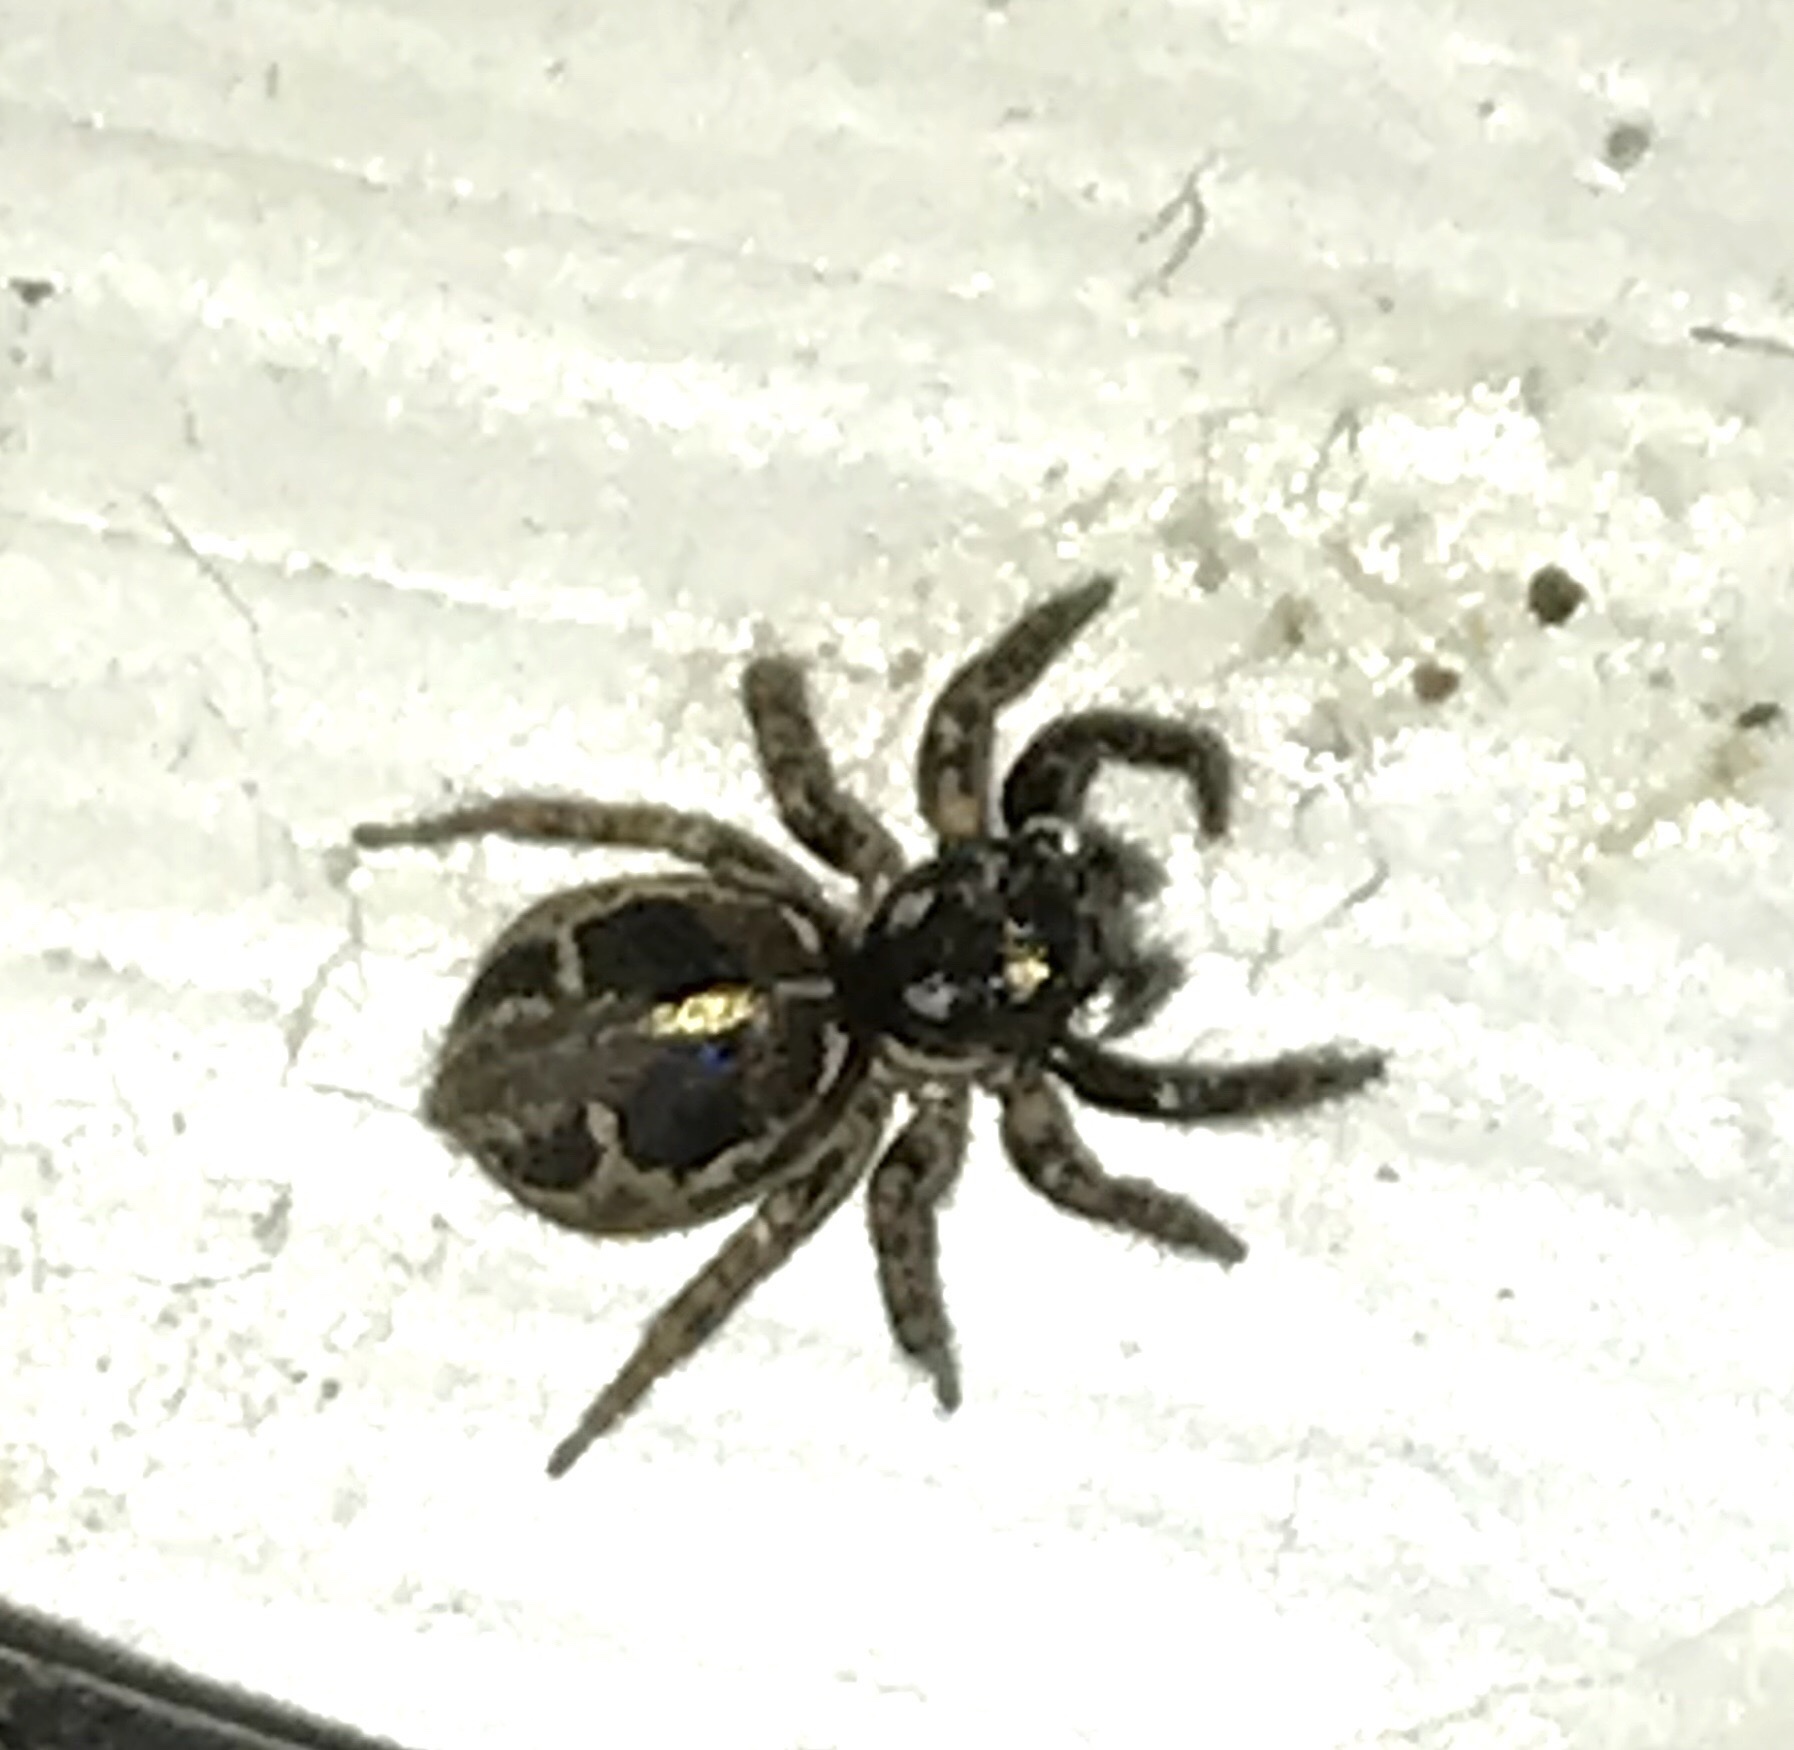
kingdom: Animalia
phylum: Arthropoda
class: Arachnida
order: Araneae
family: Salticidae
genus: Anasaitis
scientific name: Anasaitis canosa
